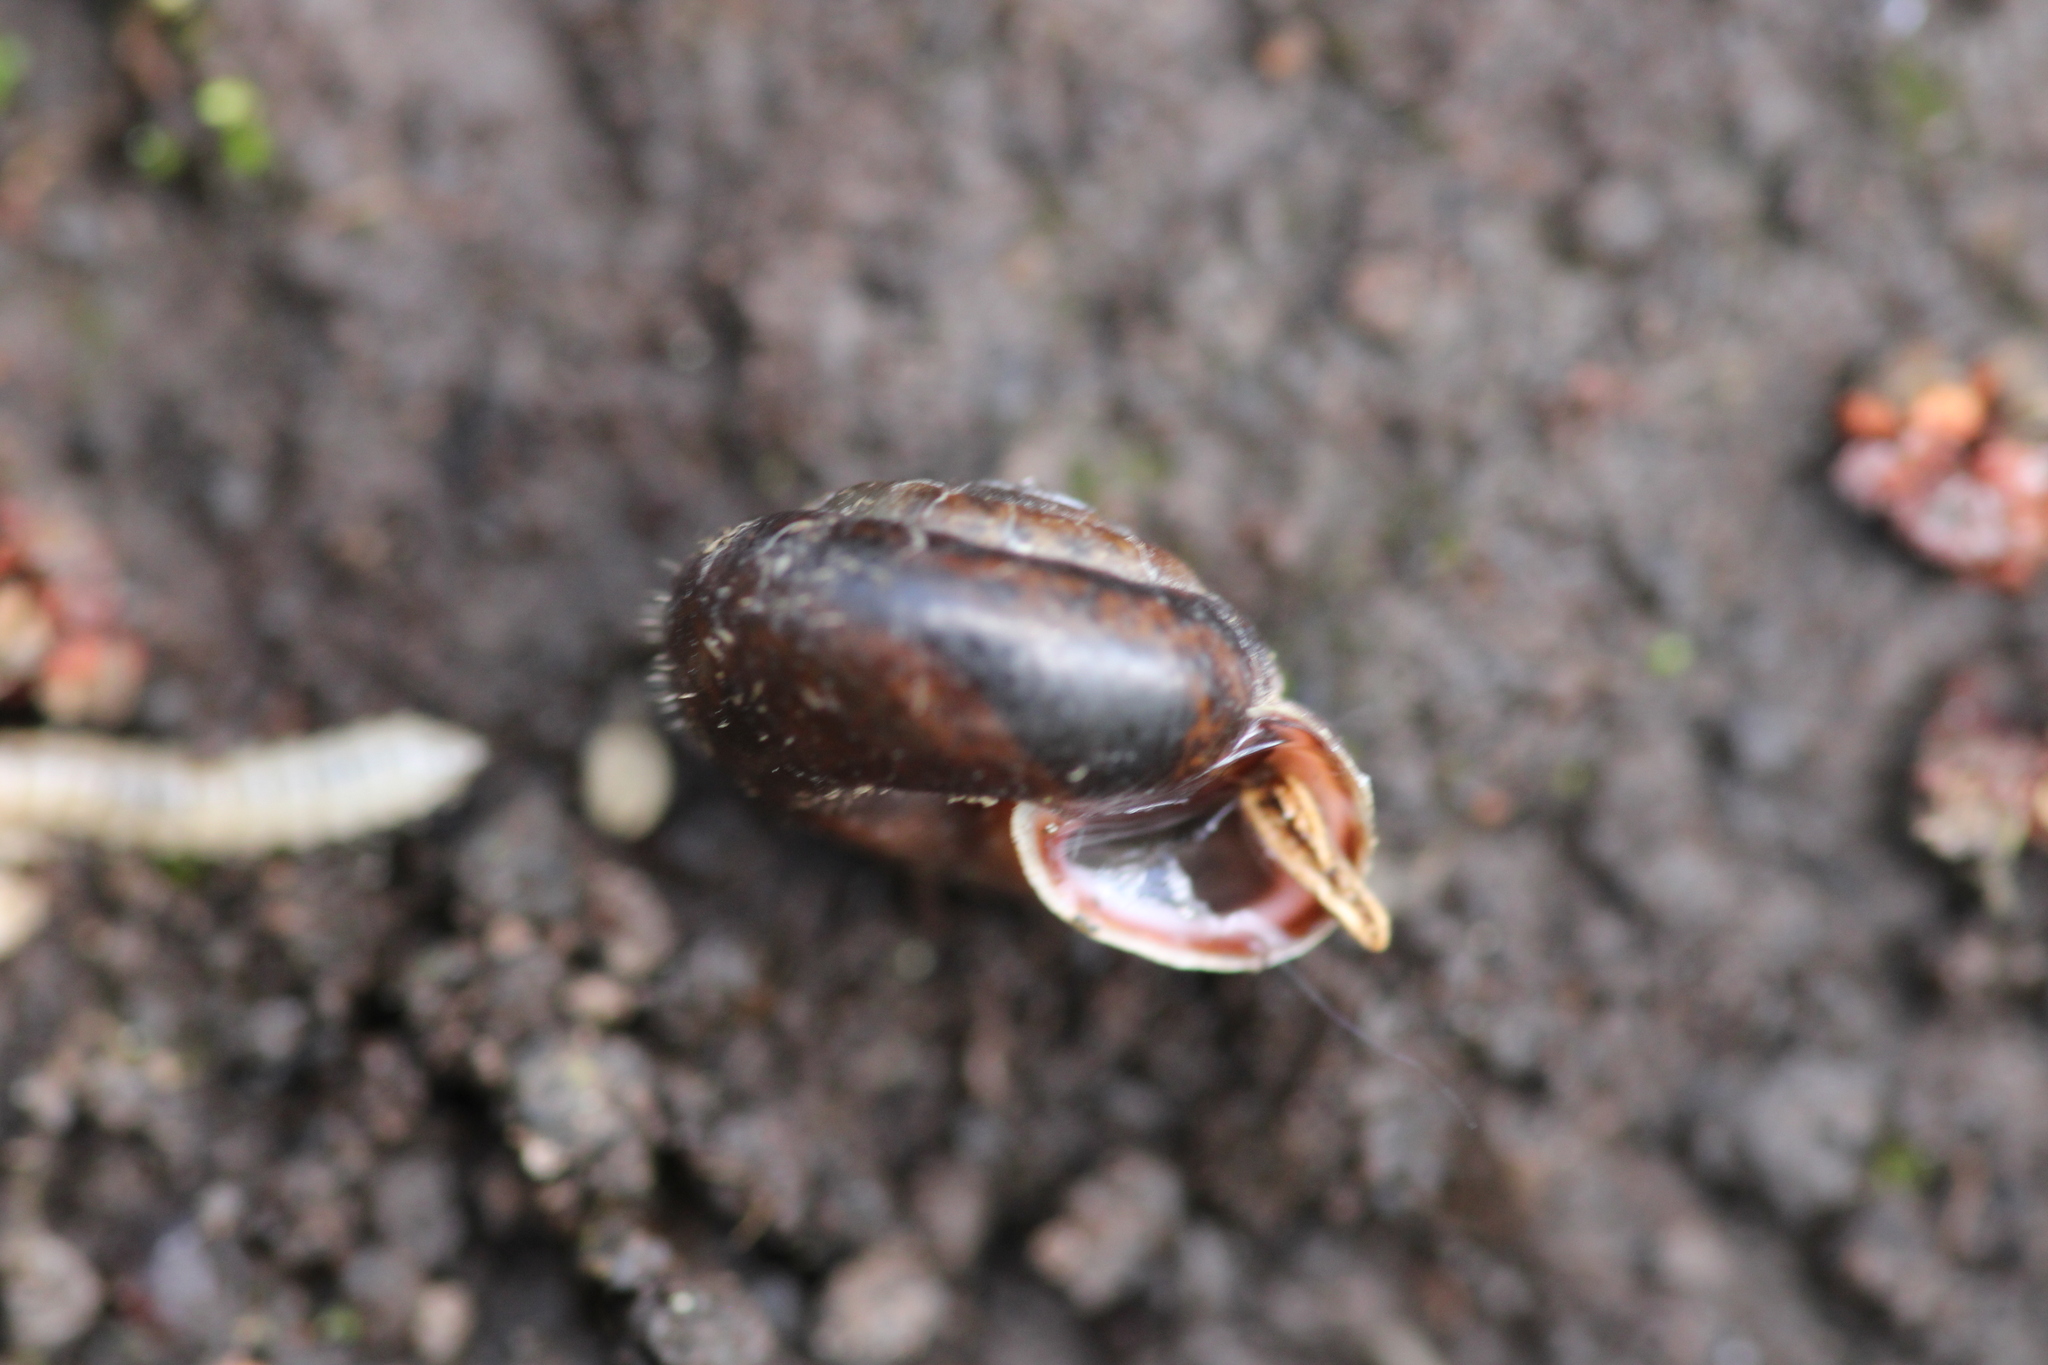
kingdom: Animalia
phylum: Mollusca
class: Gastropoda
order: Stylommatophora
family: Hygromiidae
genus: Trochulus
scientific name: Trochulus hispidus
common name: Hairy snail
